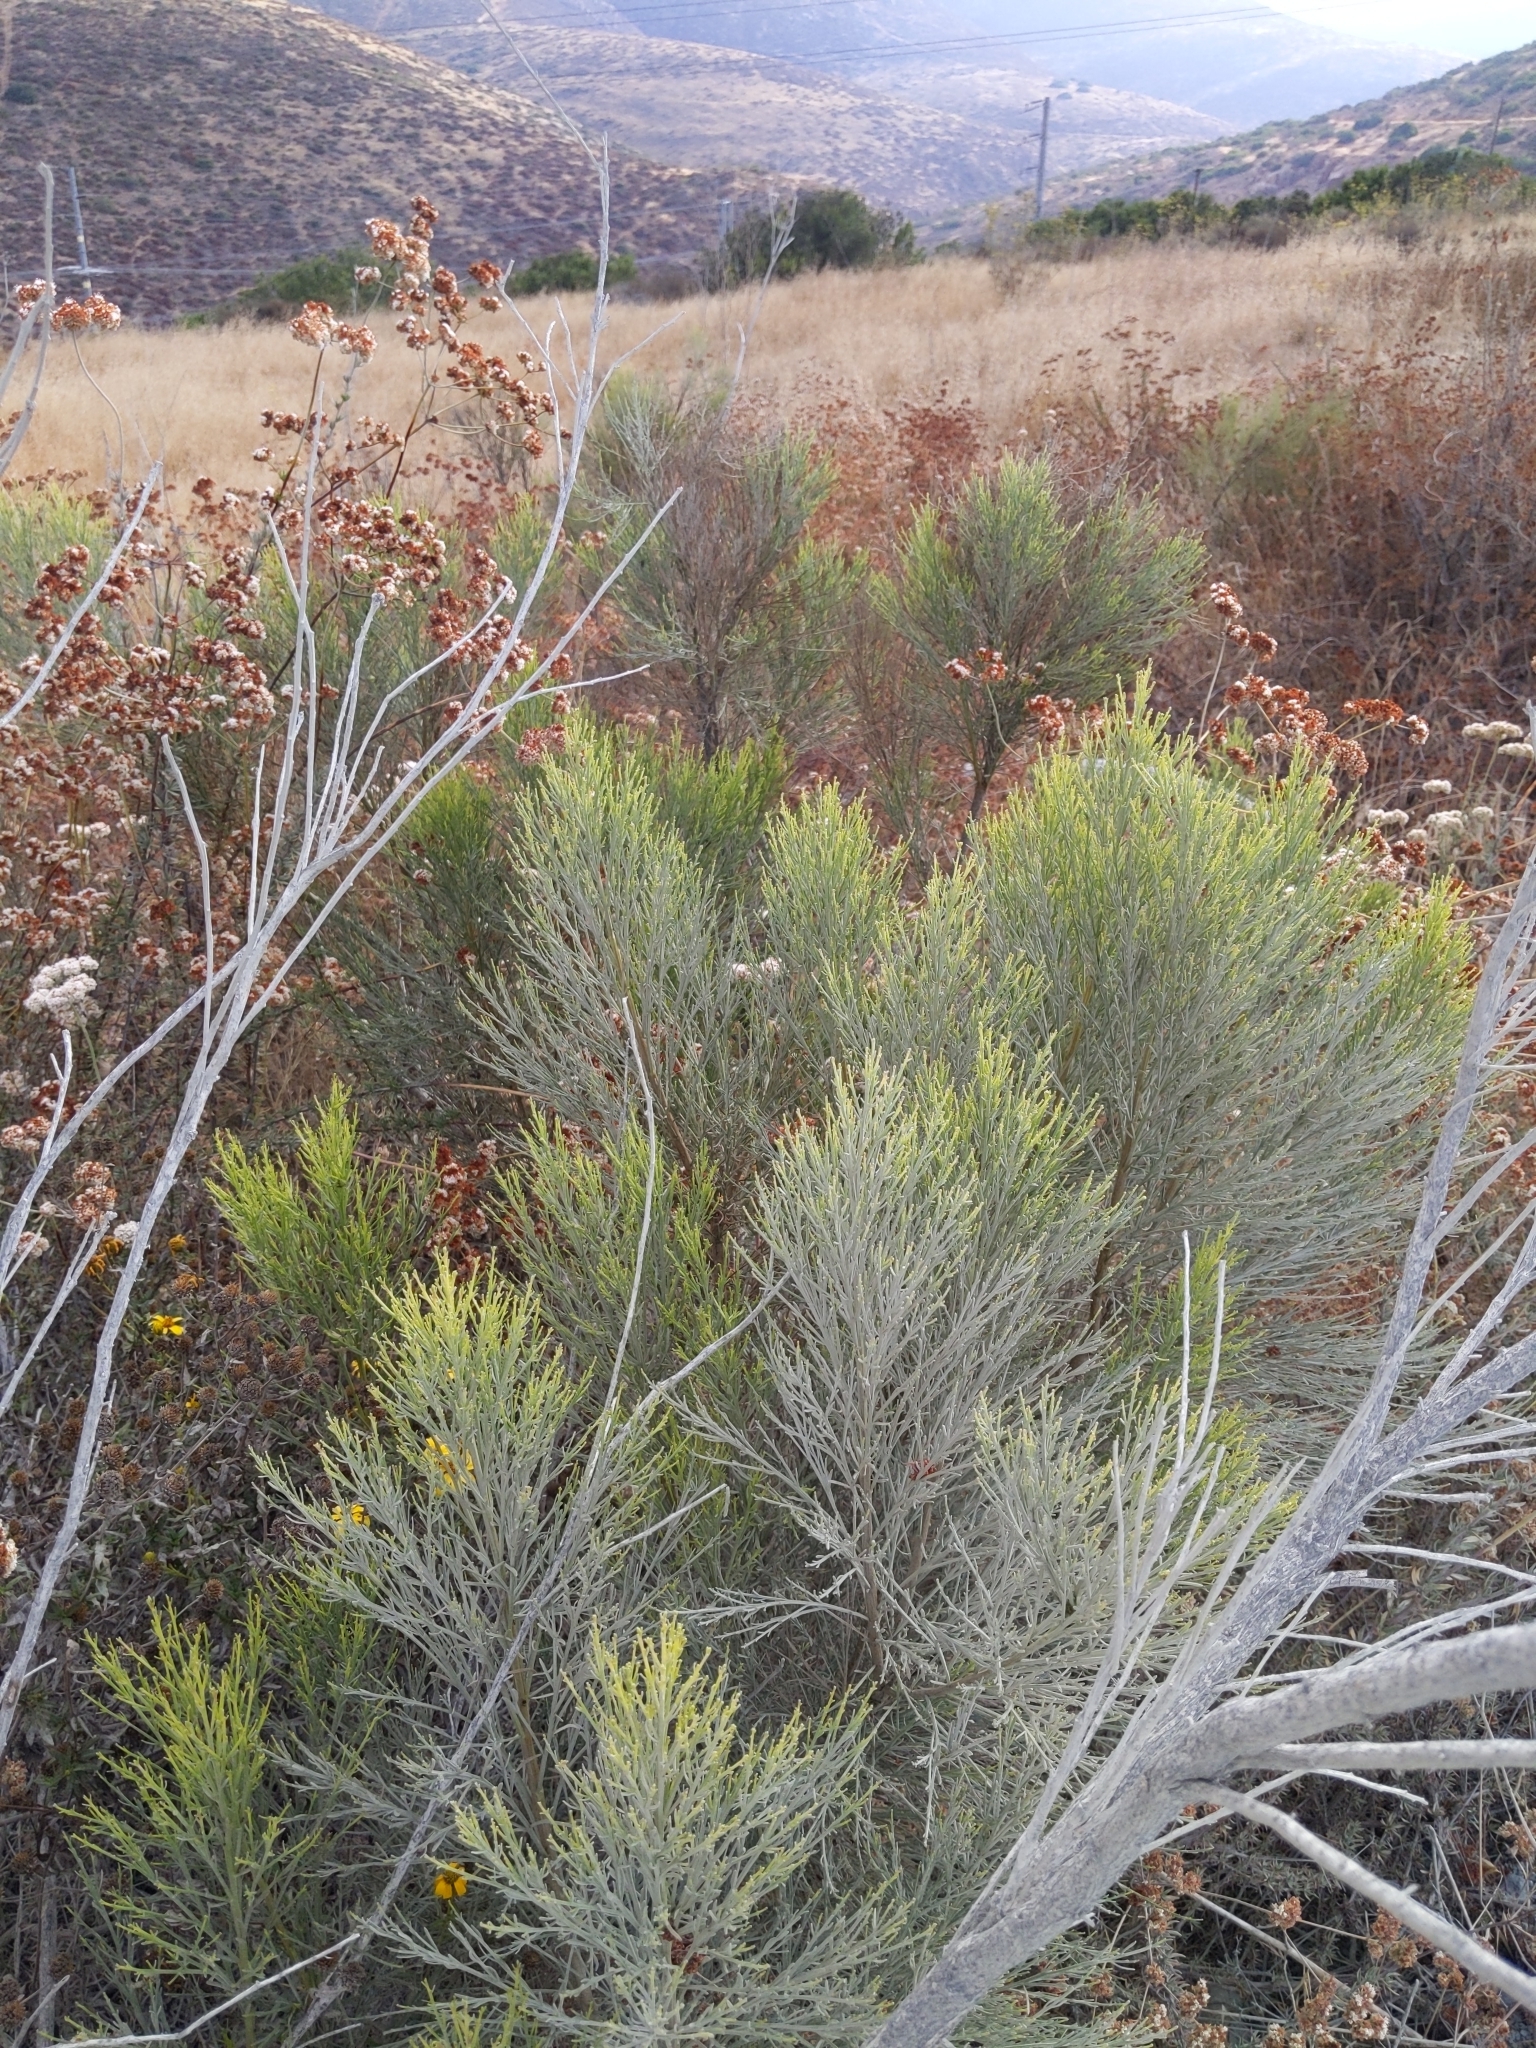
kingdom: Plantae
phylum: Tracheophyta
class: Magnoliopsida
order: Asterales
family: Asteraceae
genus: Baccharis
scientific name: Baccharis sarothroides
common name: Desert-broom
